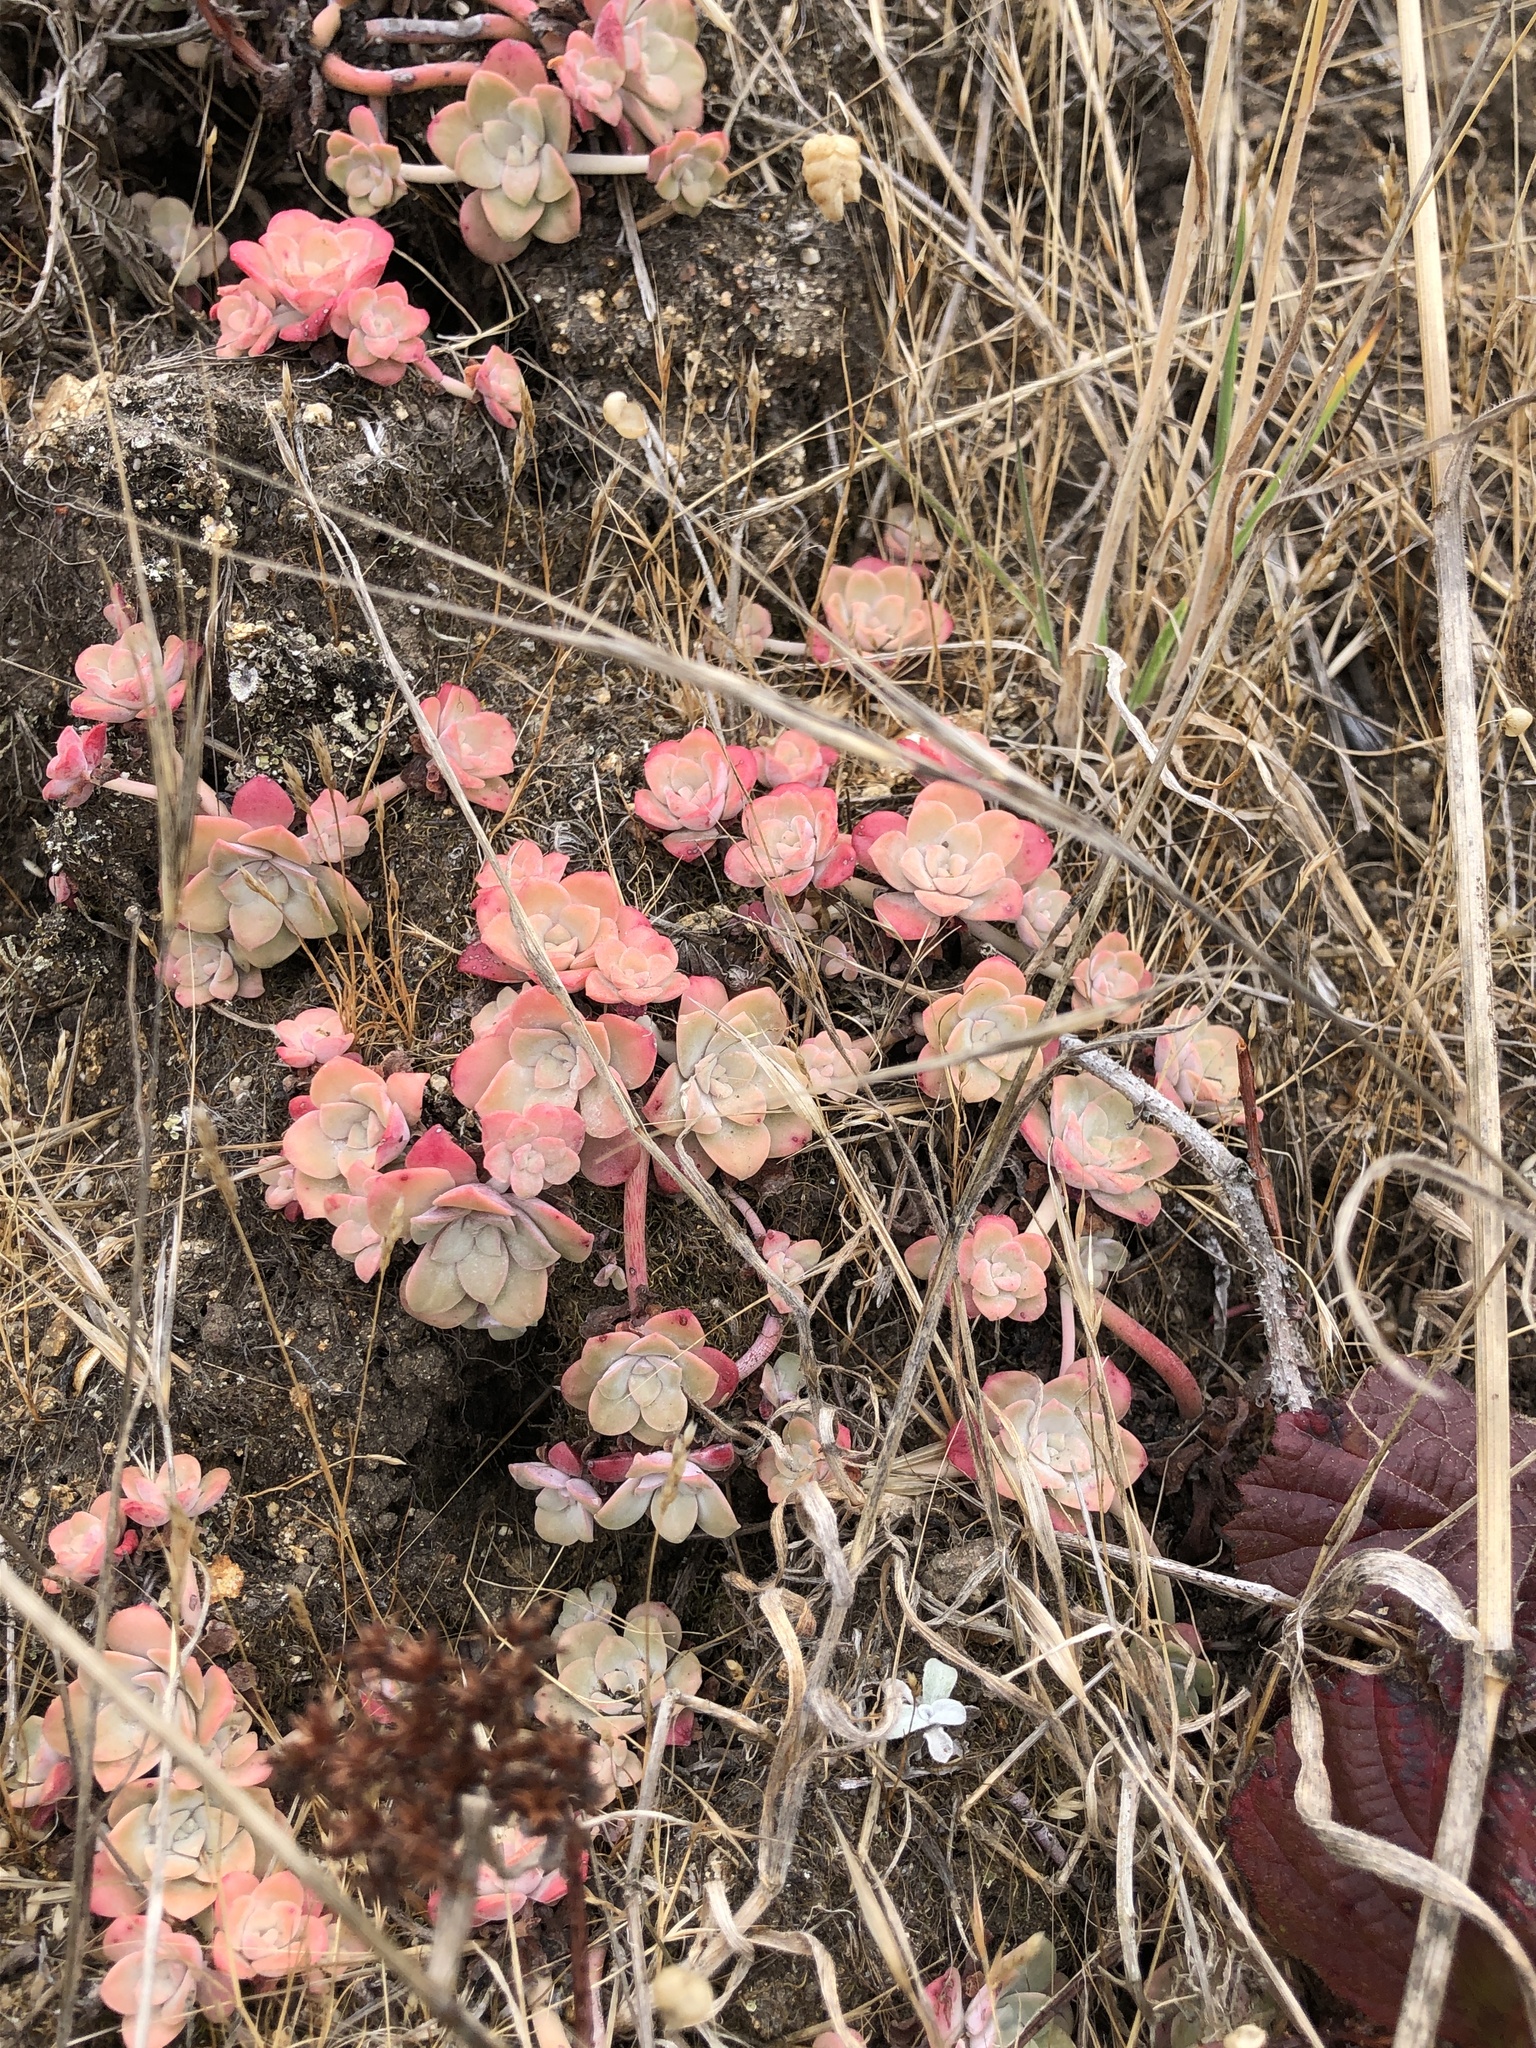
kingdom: Plantae
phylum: Tracheophyta
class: Magnoliopsida
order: Saxifragales
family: Crassulaceae
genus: Sedum
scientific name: Sedum spathulifolium
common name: Colorado stonecrop
